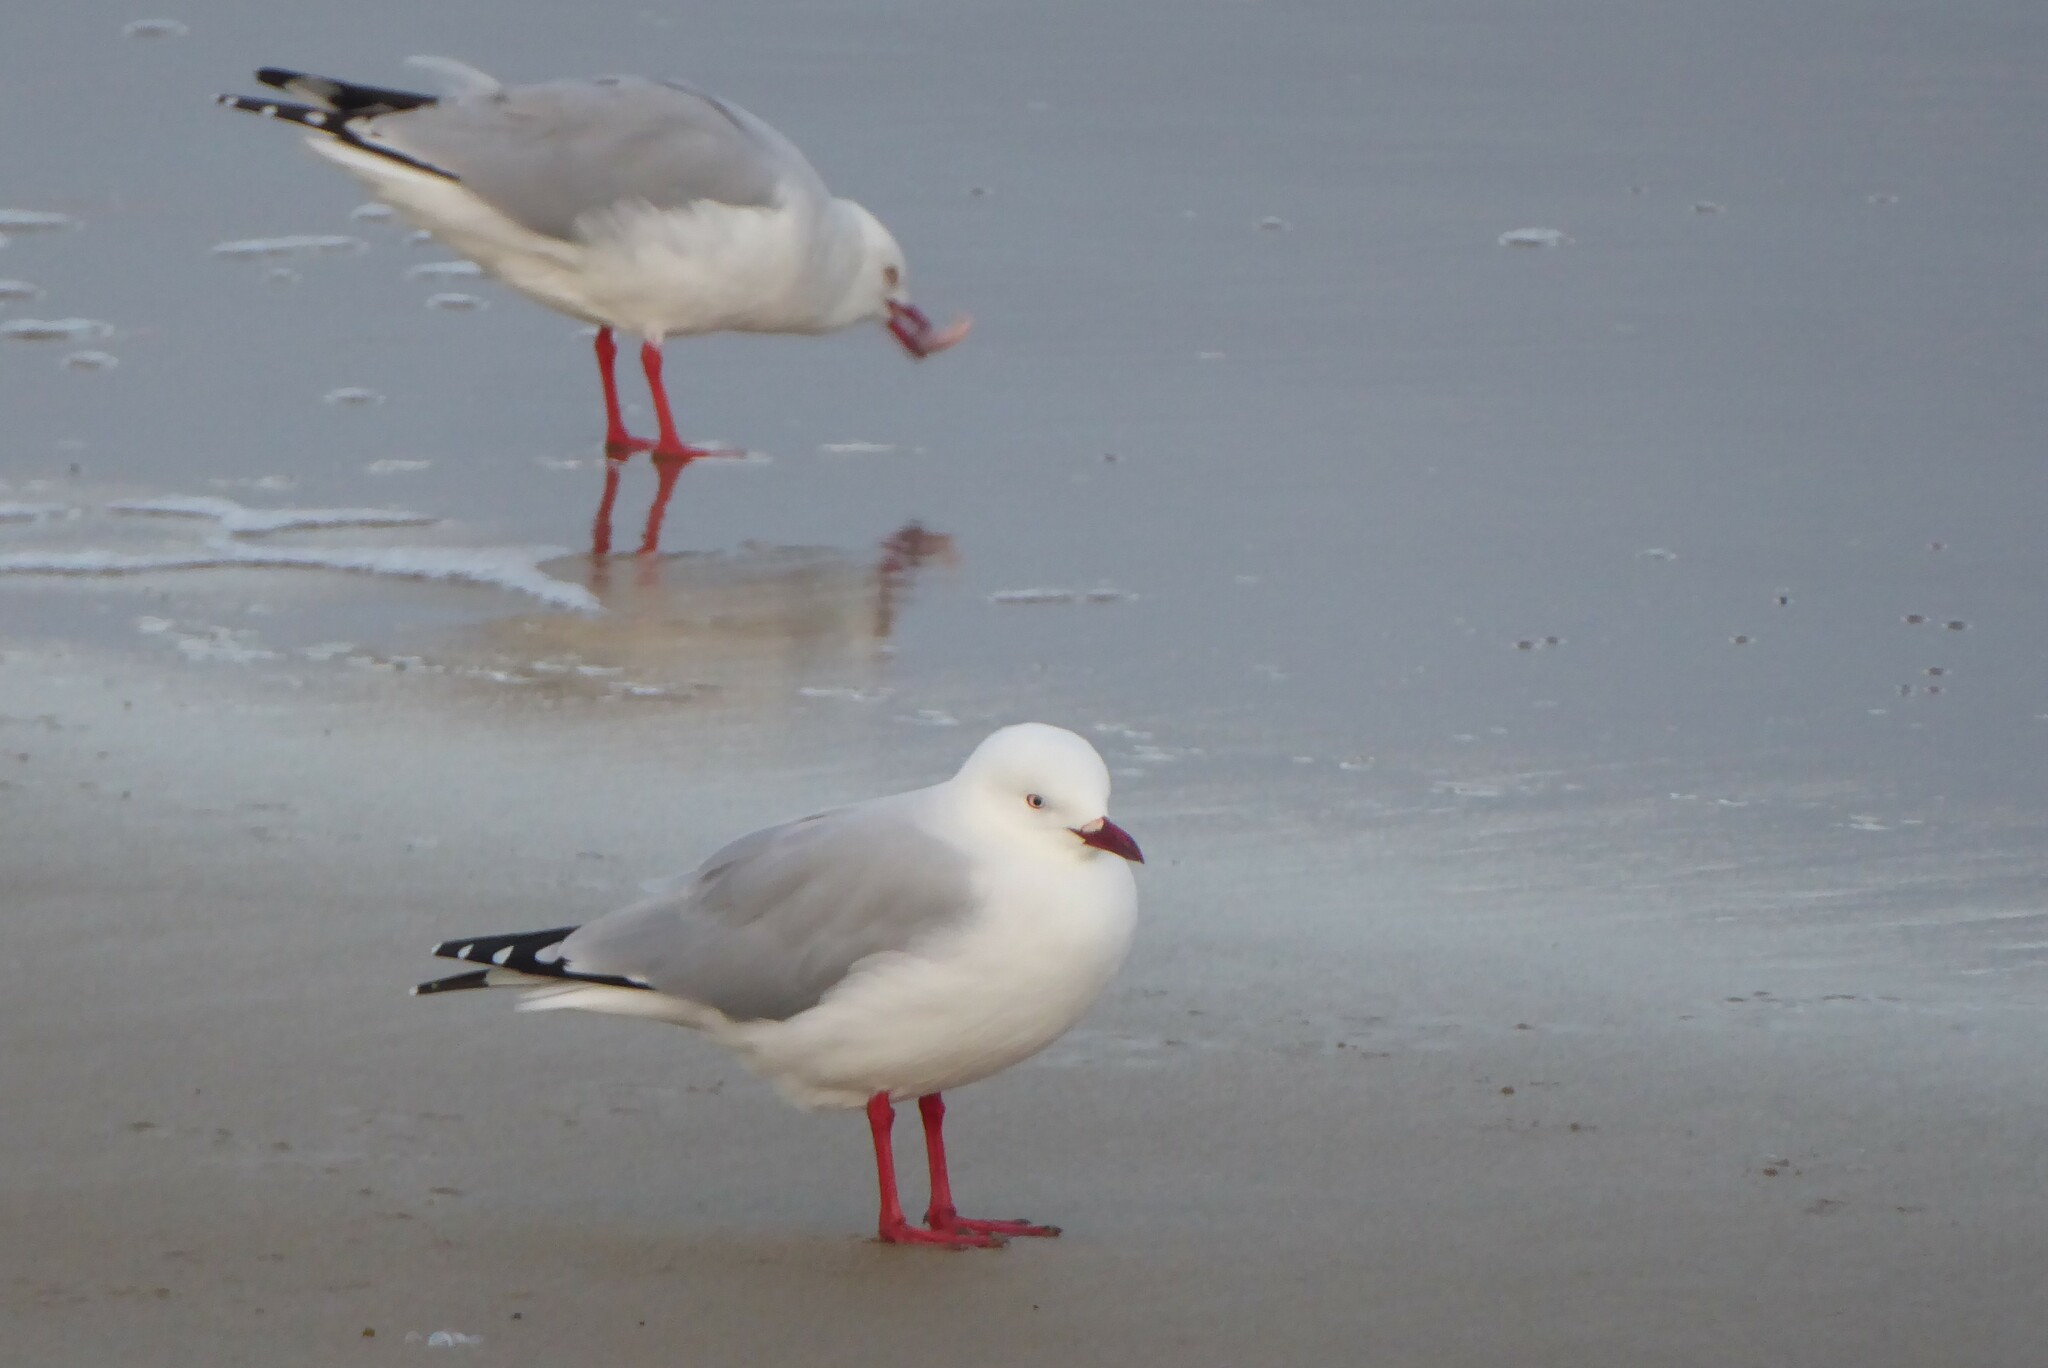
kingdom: Animalia
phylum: Chordata
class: Aves
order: Charadriiformes
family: Laridae
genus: Chroicocephalus
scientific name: Chroicocephalus novaehollandiae
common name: Silver gull
